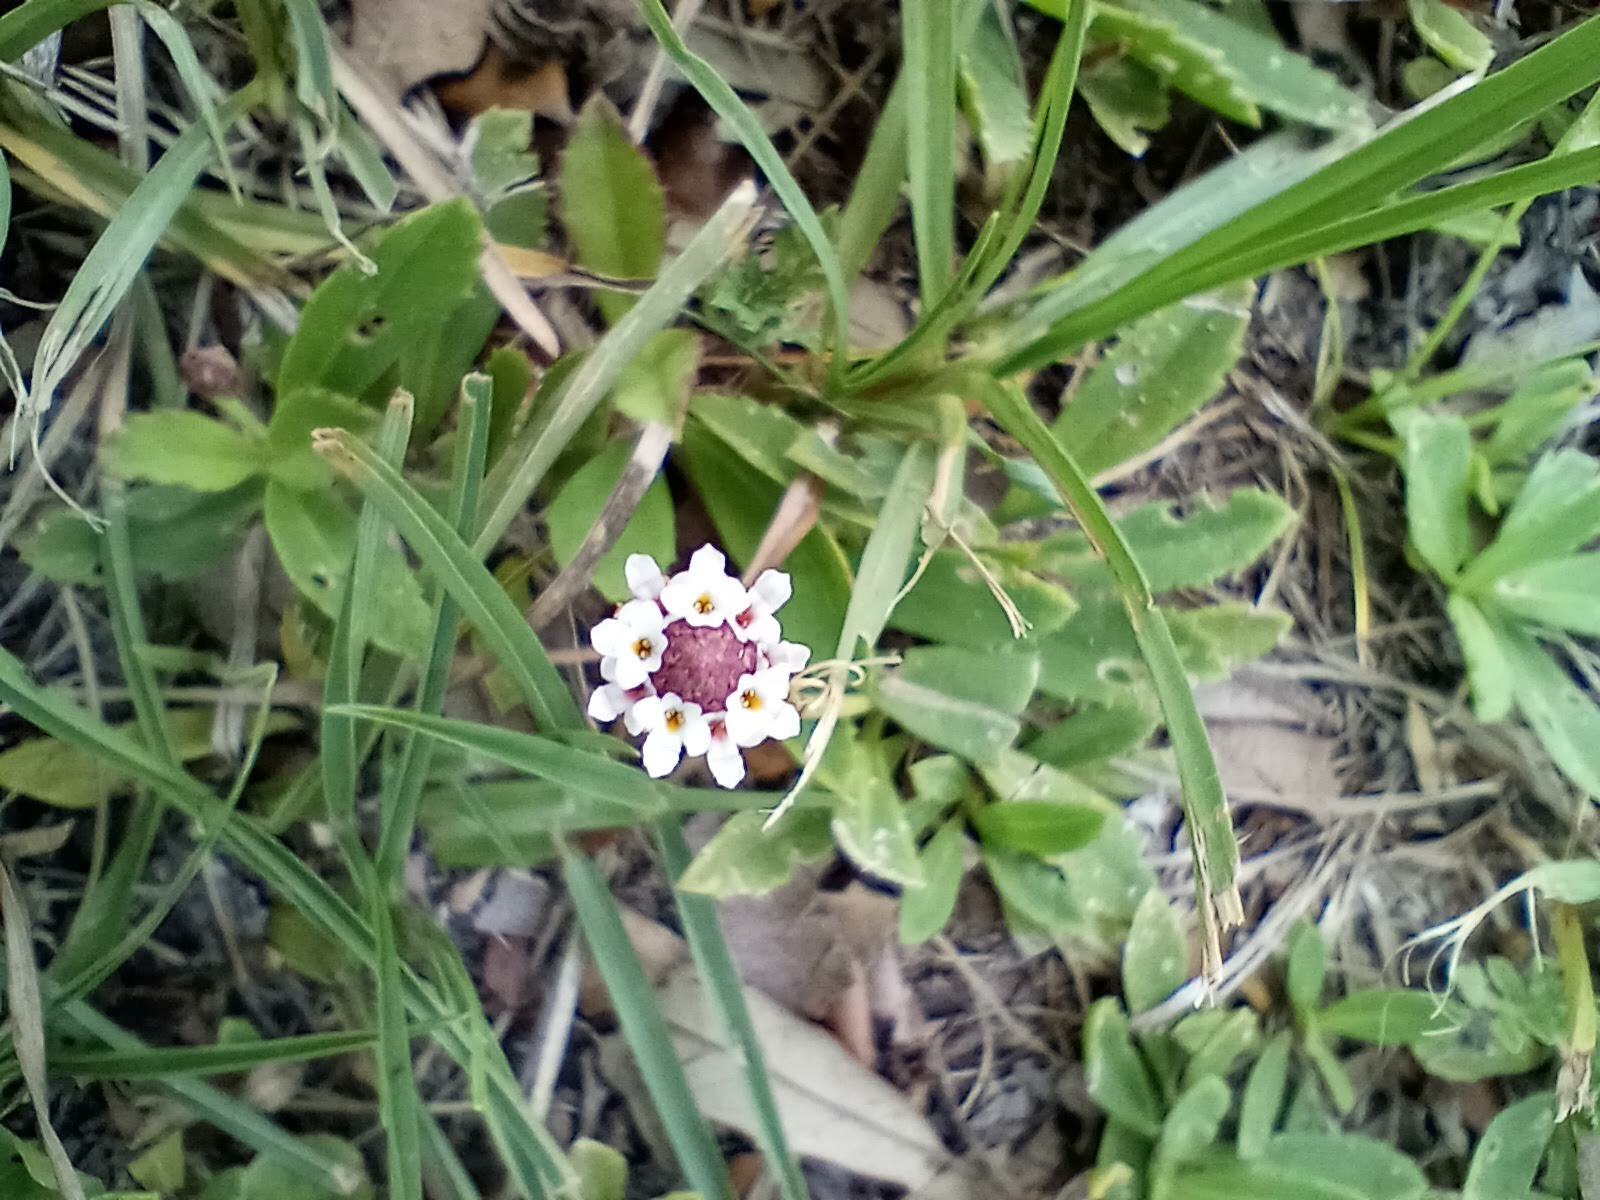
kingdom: Plantae
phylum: Tracheophyta
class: Magnoliopsida
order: Lamiales
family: Verbenaceae
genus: Phyla
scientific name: Phyla nodiflora
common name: Frogfruit
